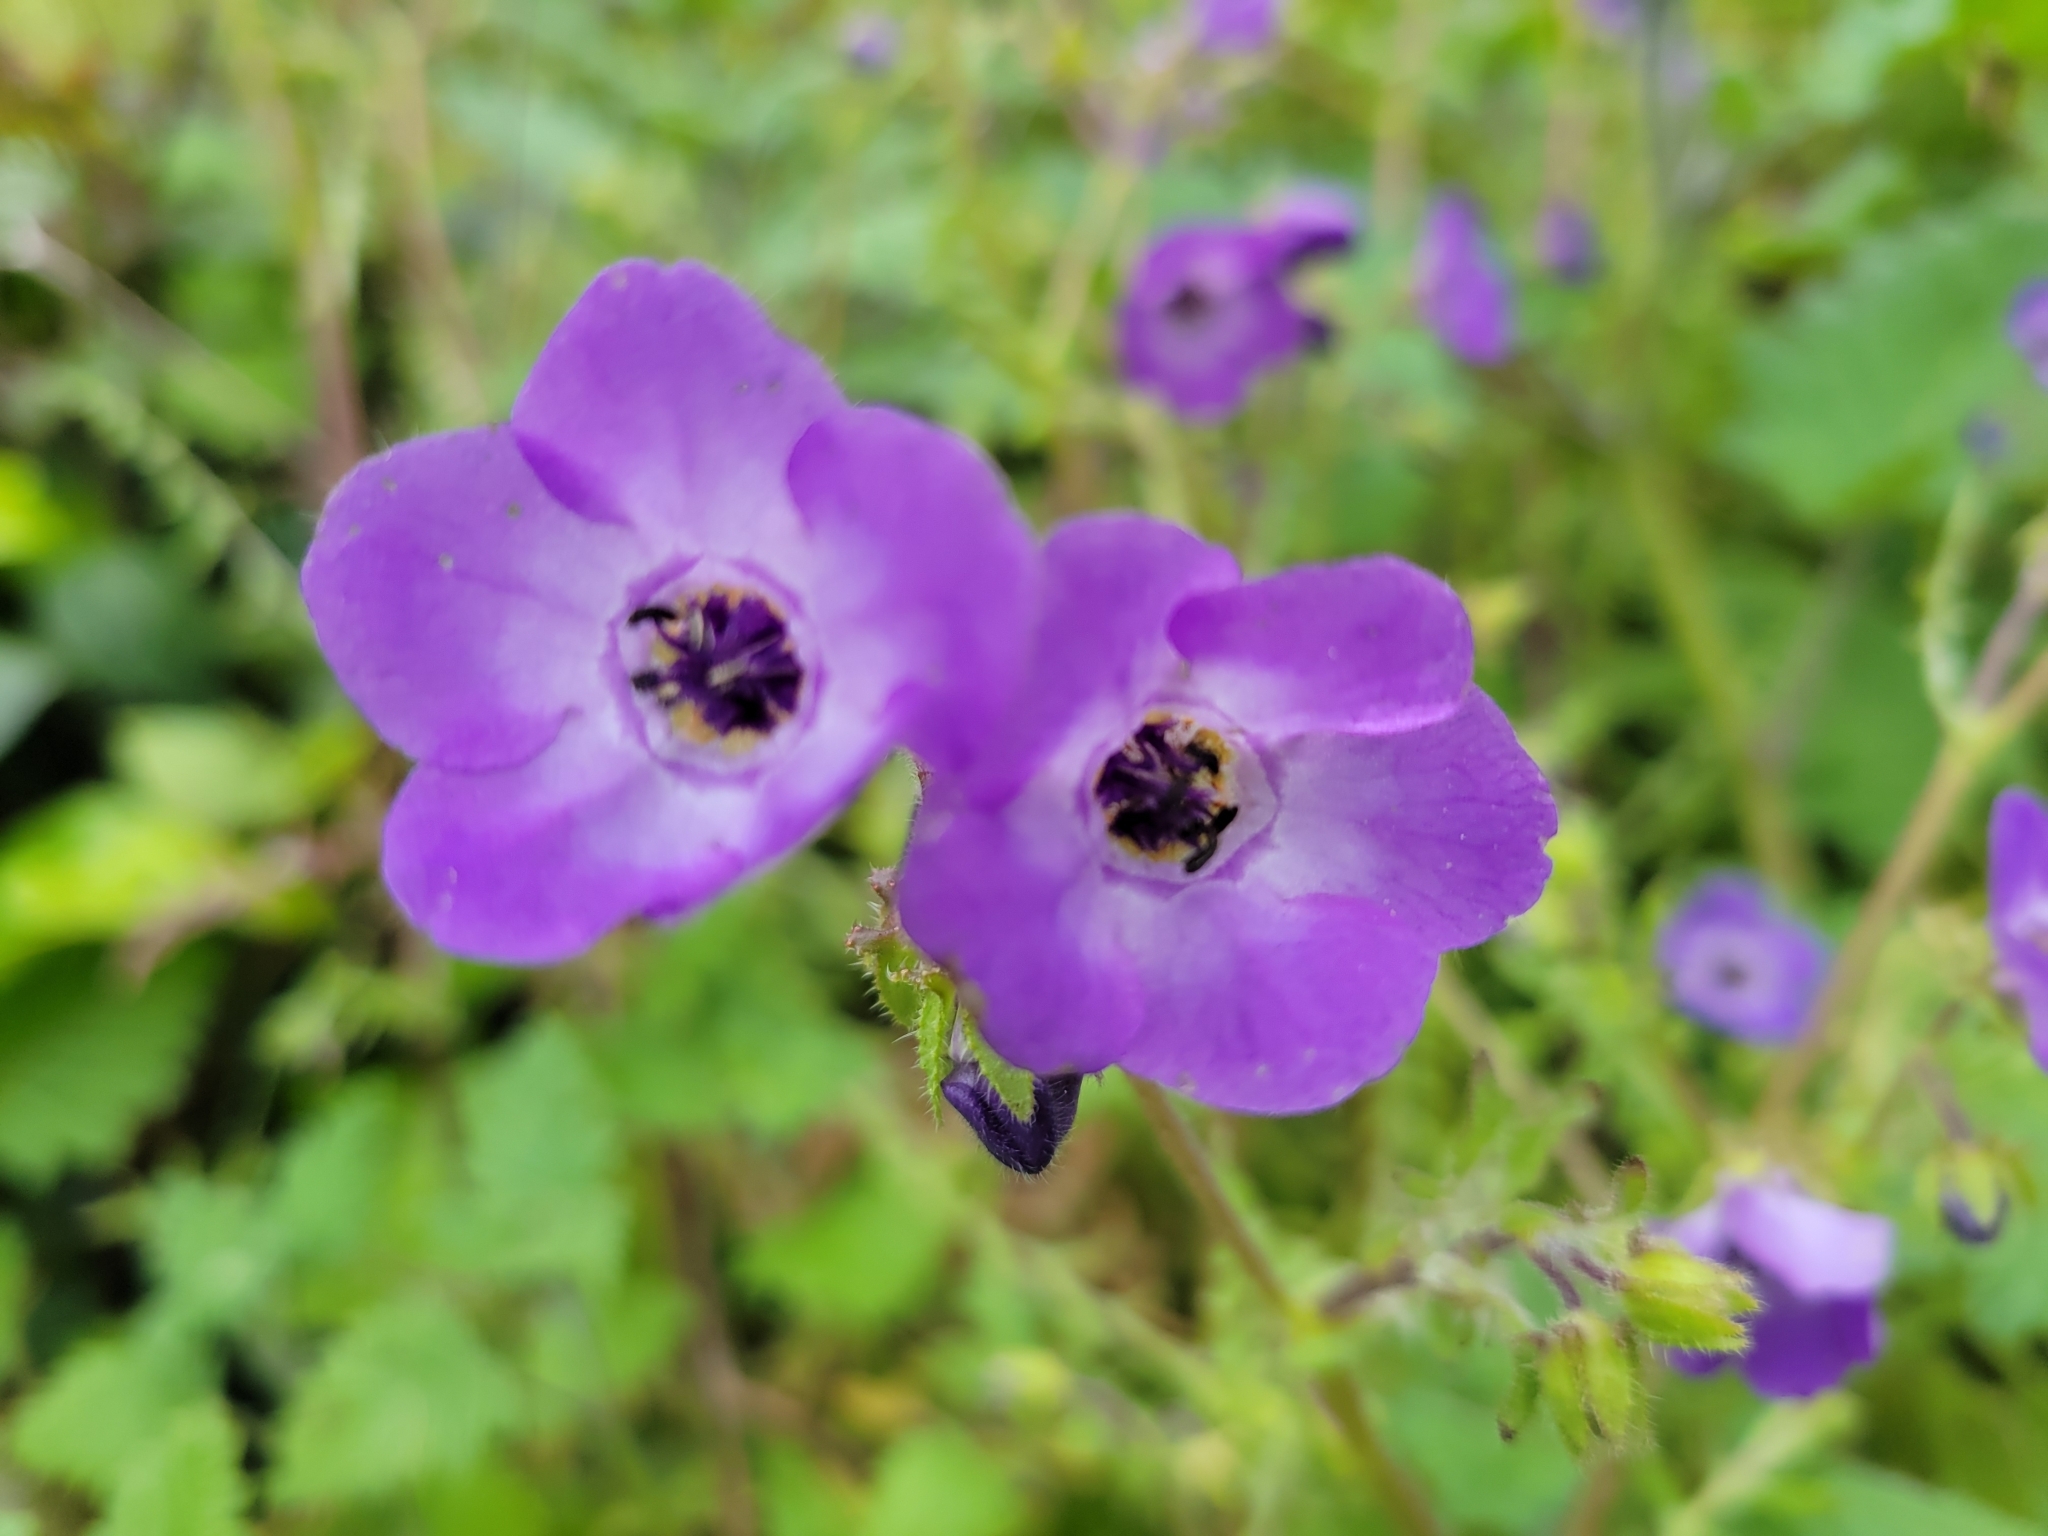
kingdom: Plantae
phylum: Tracheophyta
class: Magnoliopsida
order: Boraginales
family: Hydrophyllaceae
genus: Pholistoma
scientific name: Pholistoma auritum
